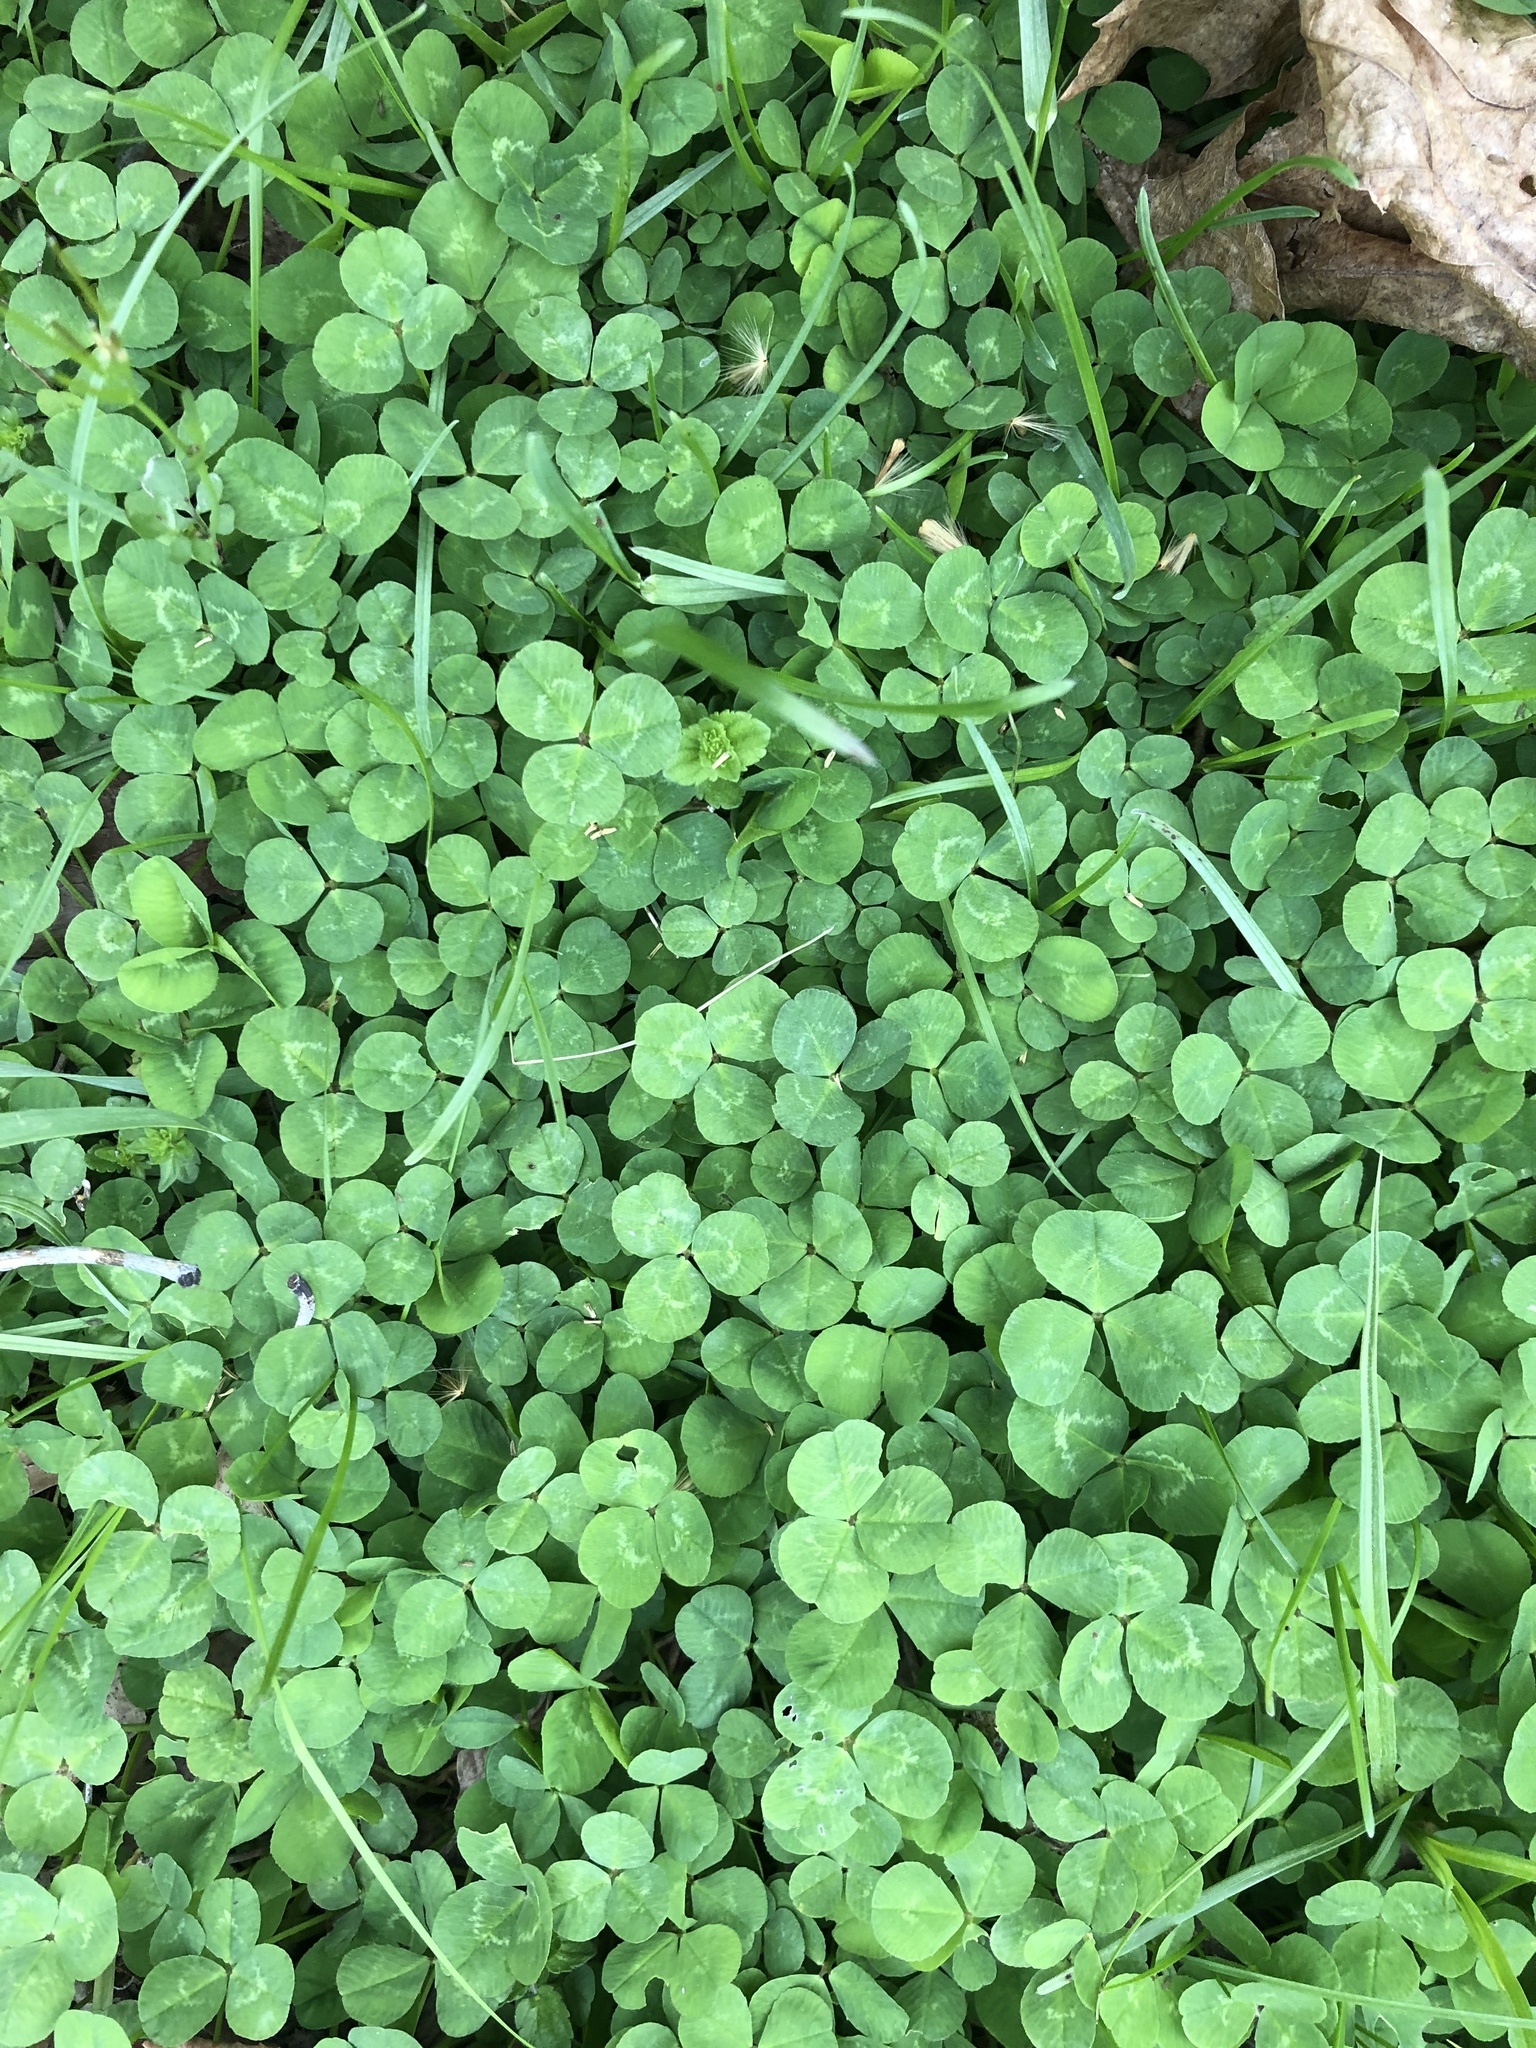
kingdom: Plantae
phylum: Tracheophyta
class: Magnoliopsida
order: Fabales
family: Fabaceae
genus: Trifolium
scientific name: Trifolium repens
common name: White clover
